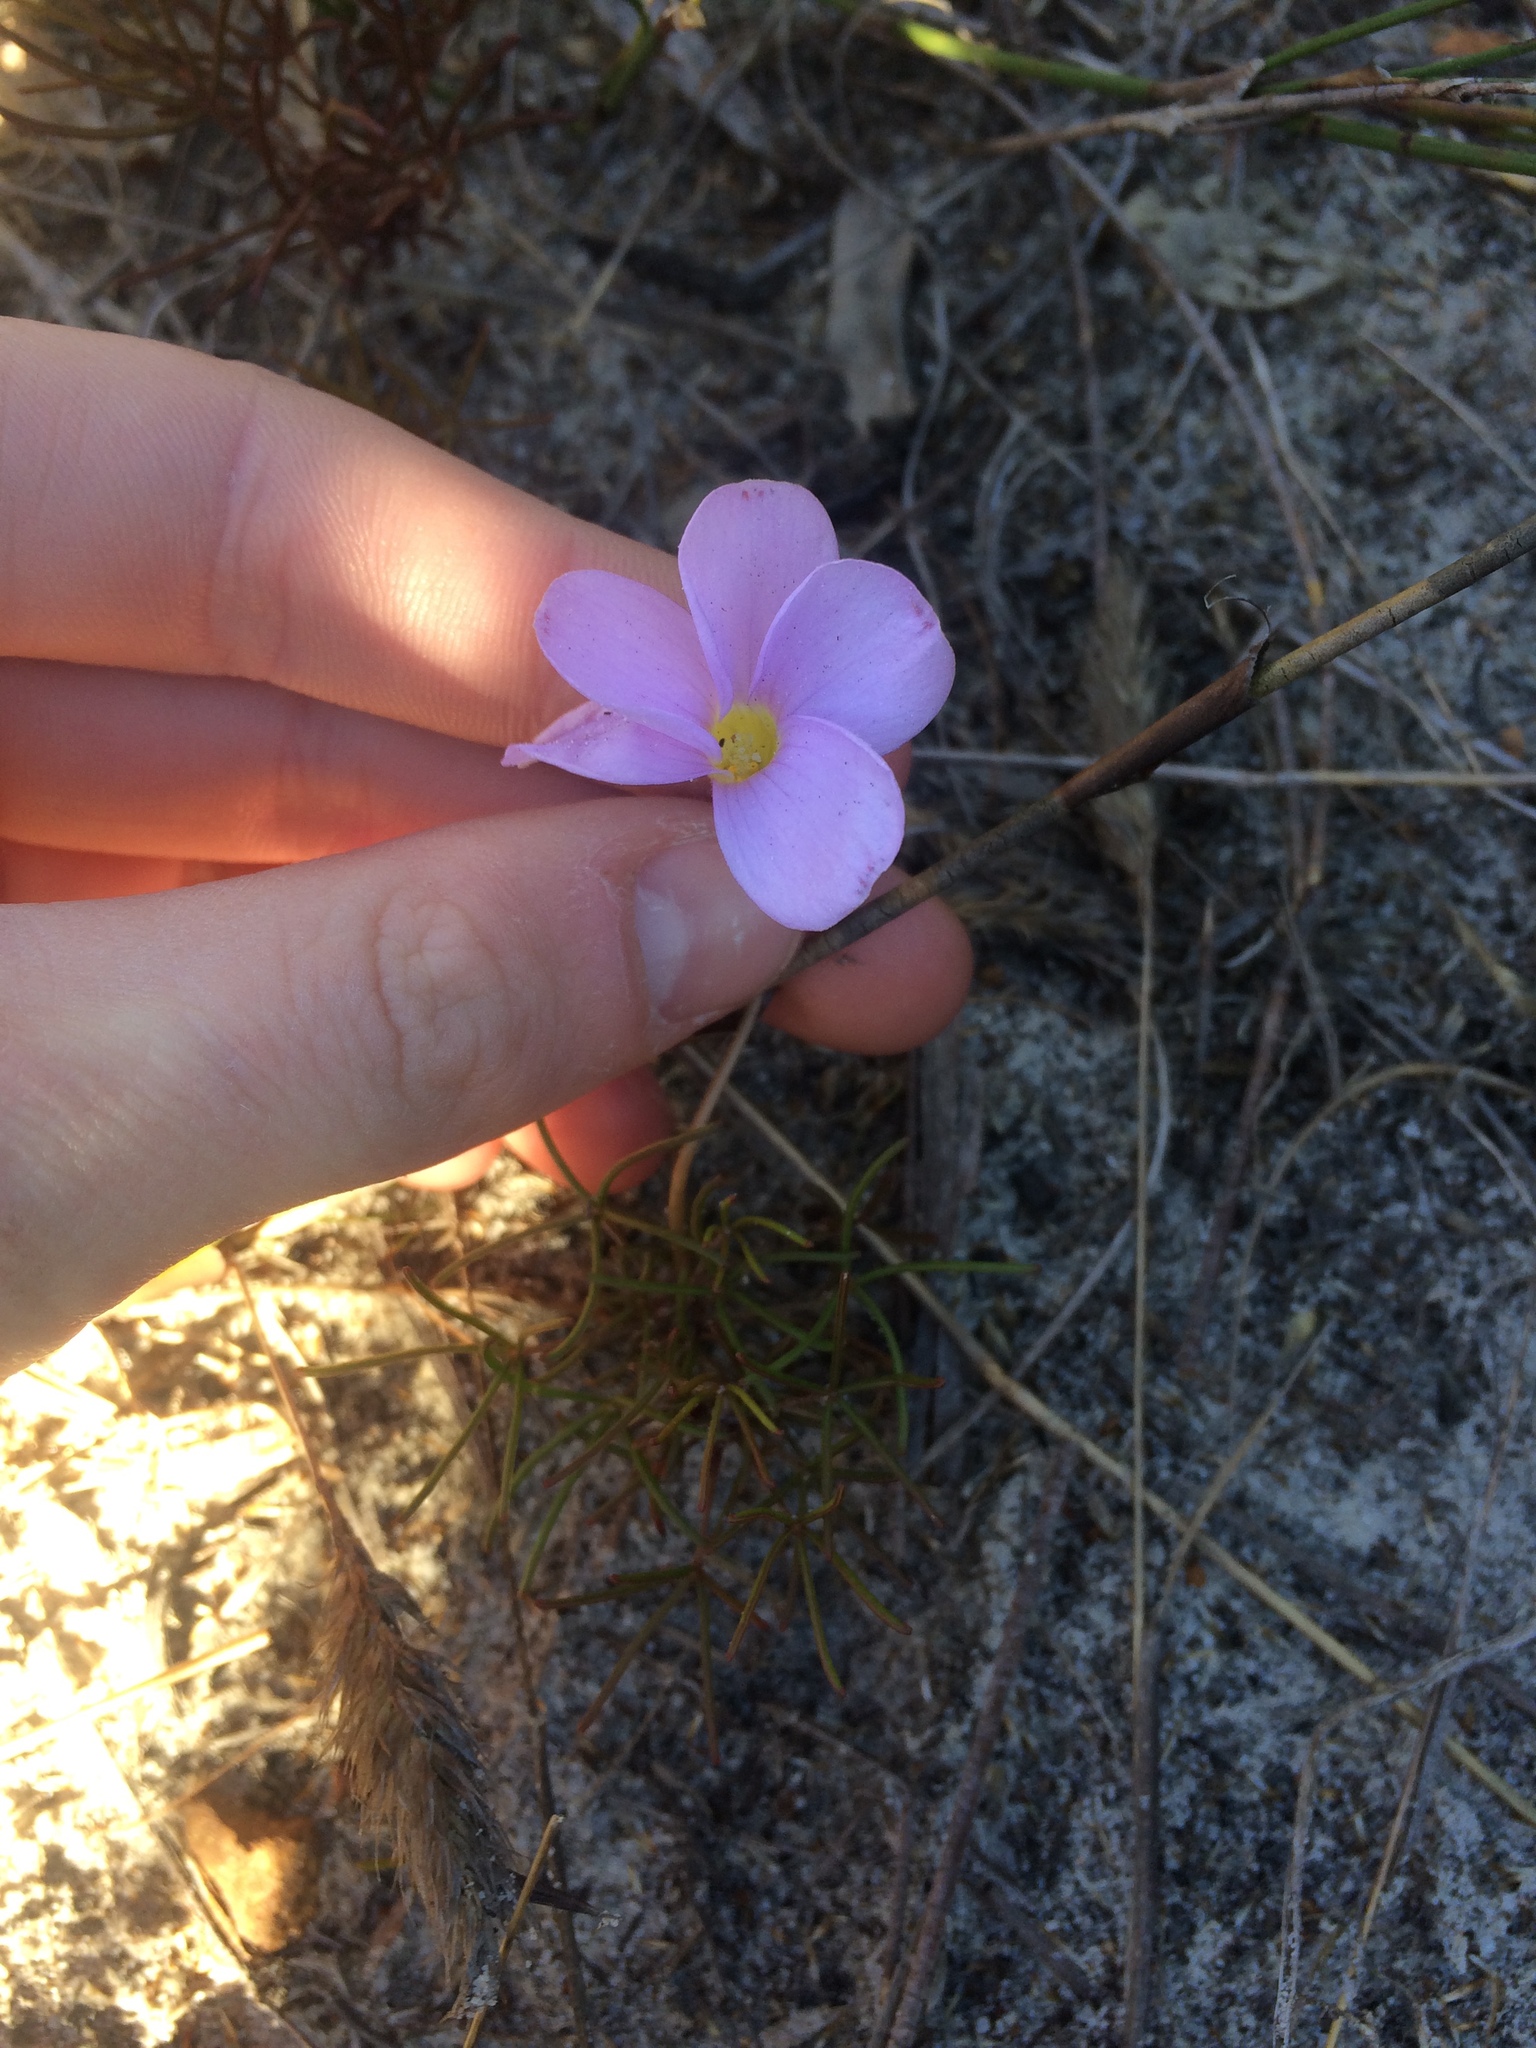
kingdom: Plantae
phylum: Tracheophyta
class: Magnoliopsida
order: Oxalidales
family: Oxalidaceae
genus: Oxalis
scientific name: Oxalis polyphylla
